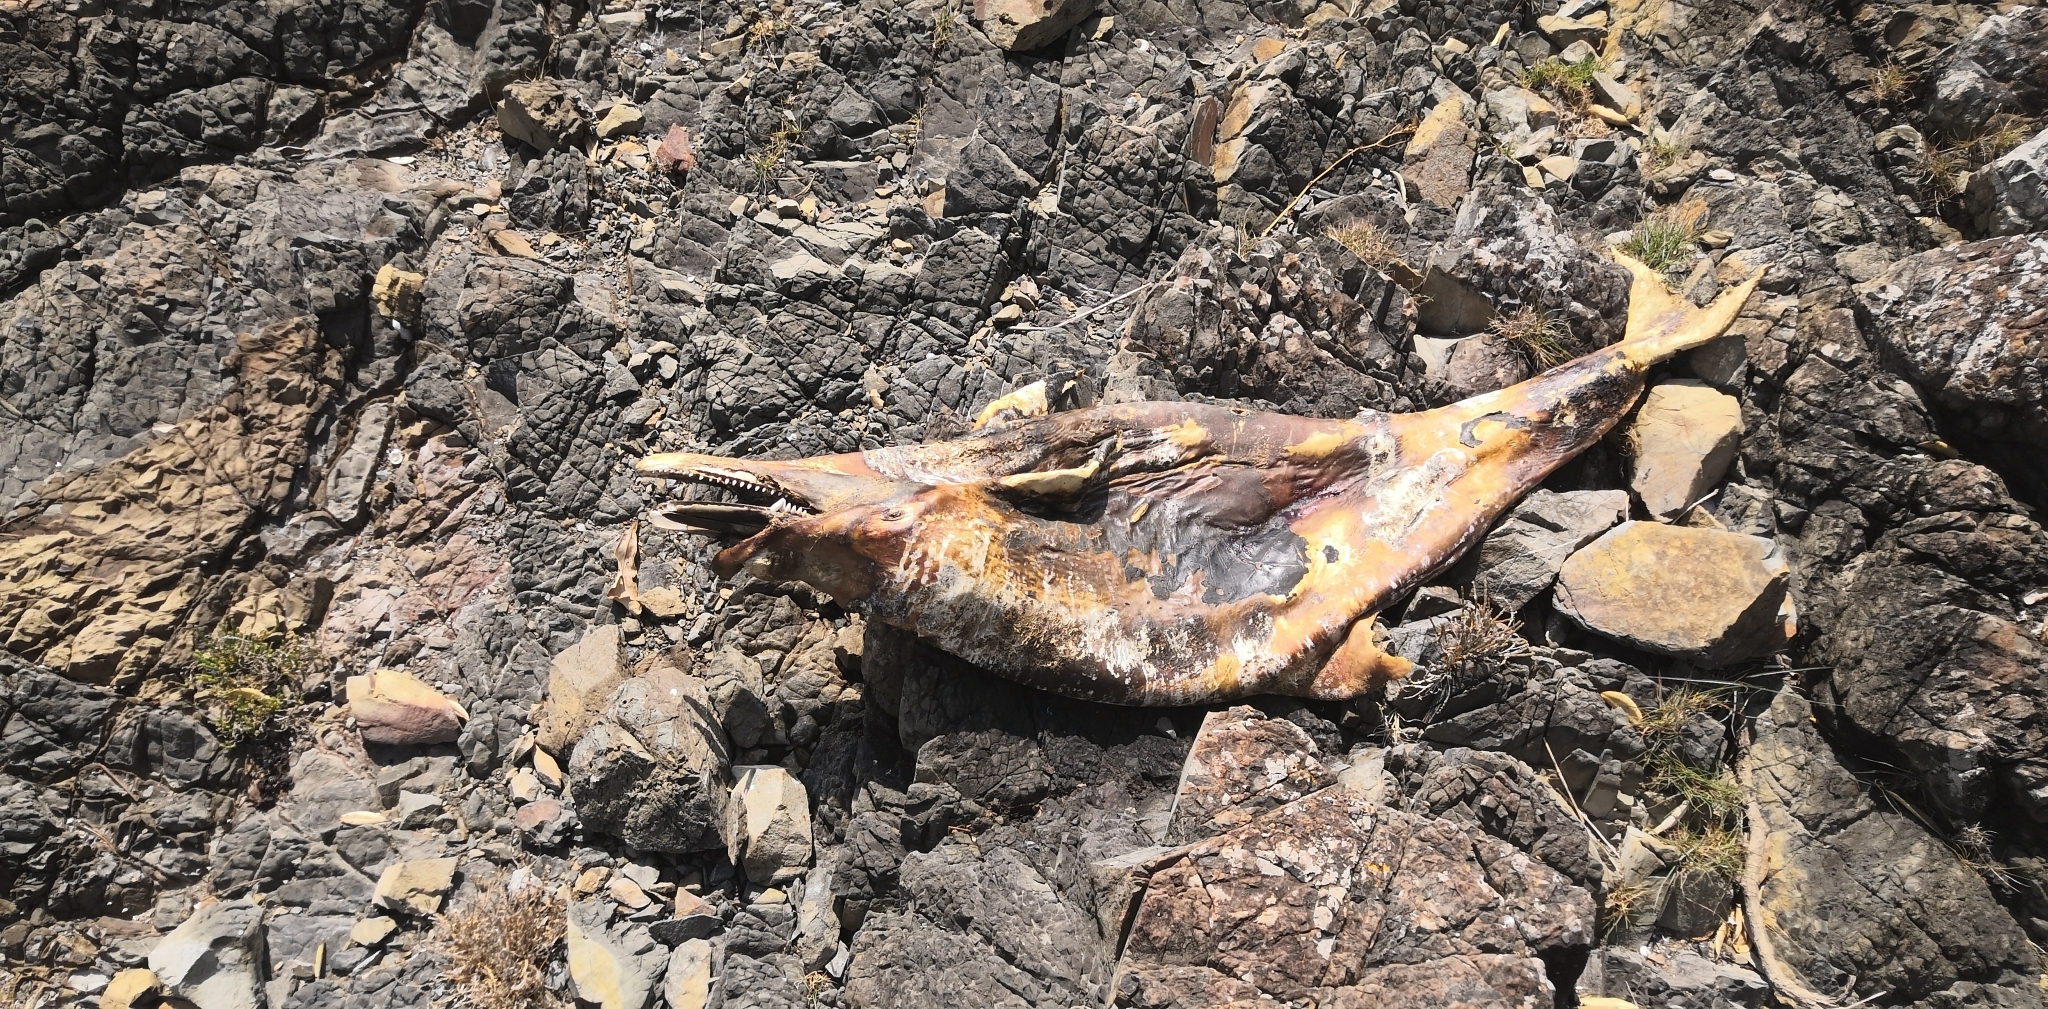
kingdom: Animalia
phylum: Chordata
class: Mammalia
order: Cetacea
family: Delphinidae
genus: Tursiops
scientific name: Tursiops truncatus
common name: Bottlenose dolphin
